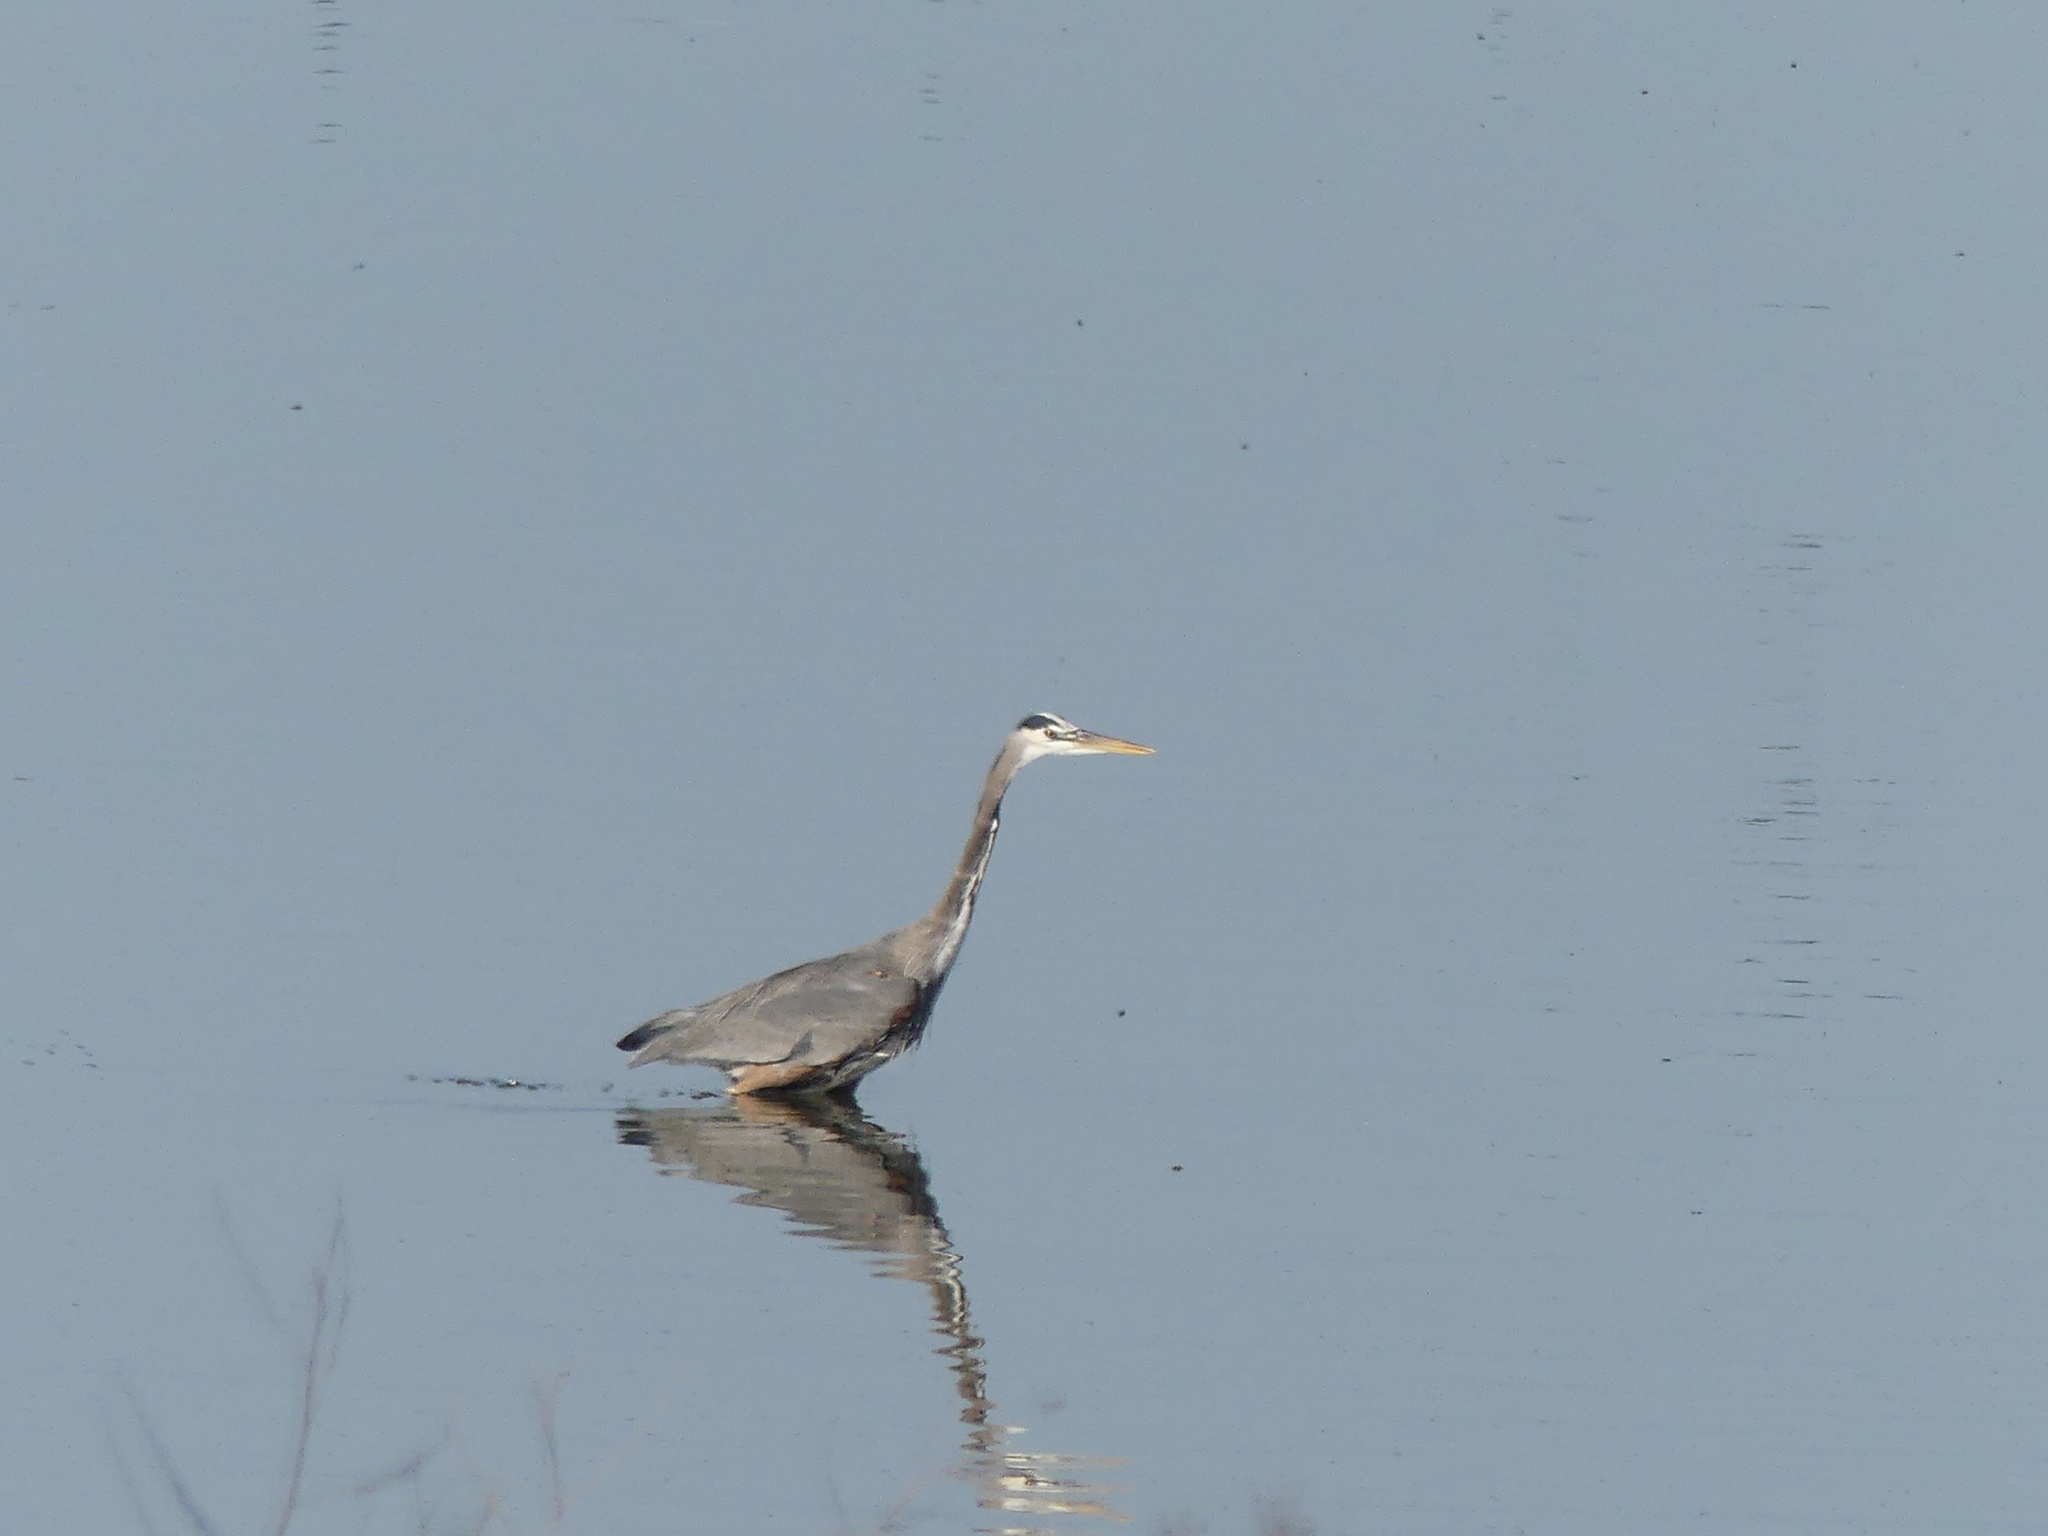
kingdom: Animalia
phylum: Chordata
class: Aves
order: Pelecaniformes
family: Ardeidae
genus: Ardea
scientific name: Ardea herodias
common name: Great blue heron
